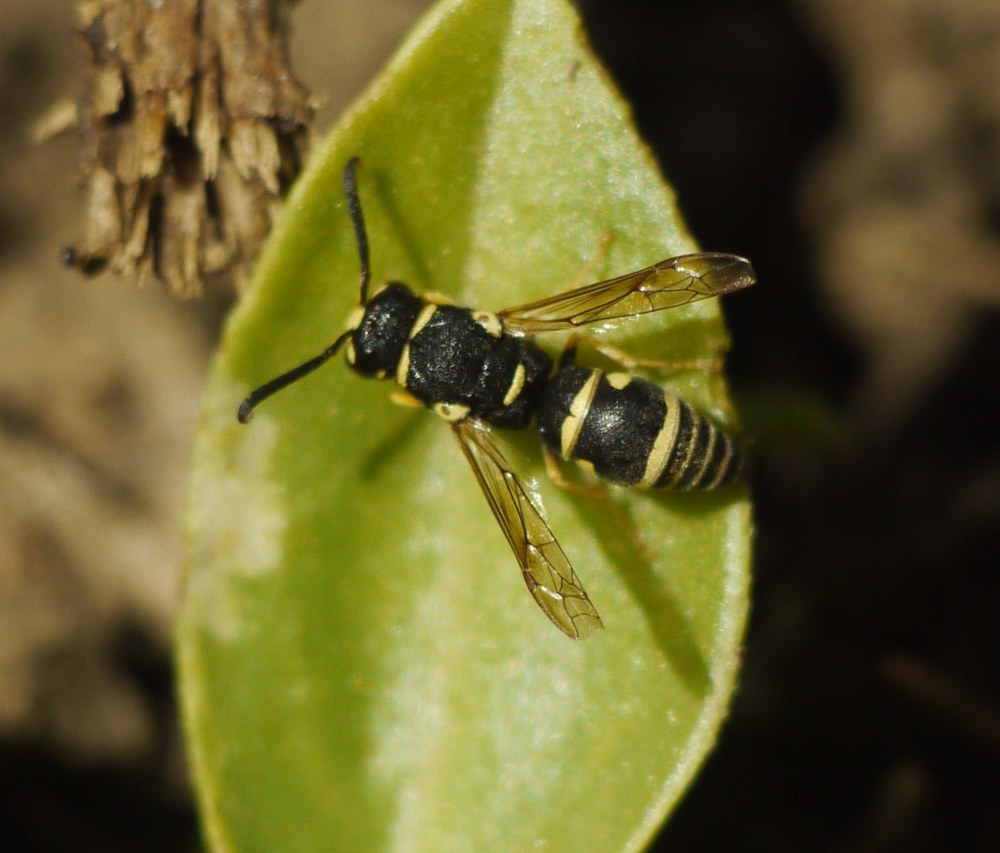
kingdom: Animalia
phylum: Arthropoda
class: Insecta
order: Hymenoptera
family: Eumenidae
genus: Syneuodynerus
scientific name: Syneuodynerus egregius
